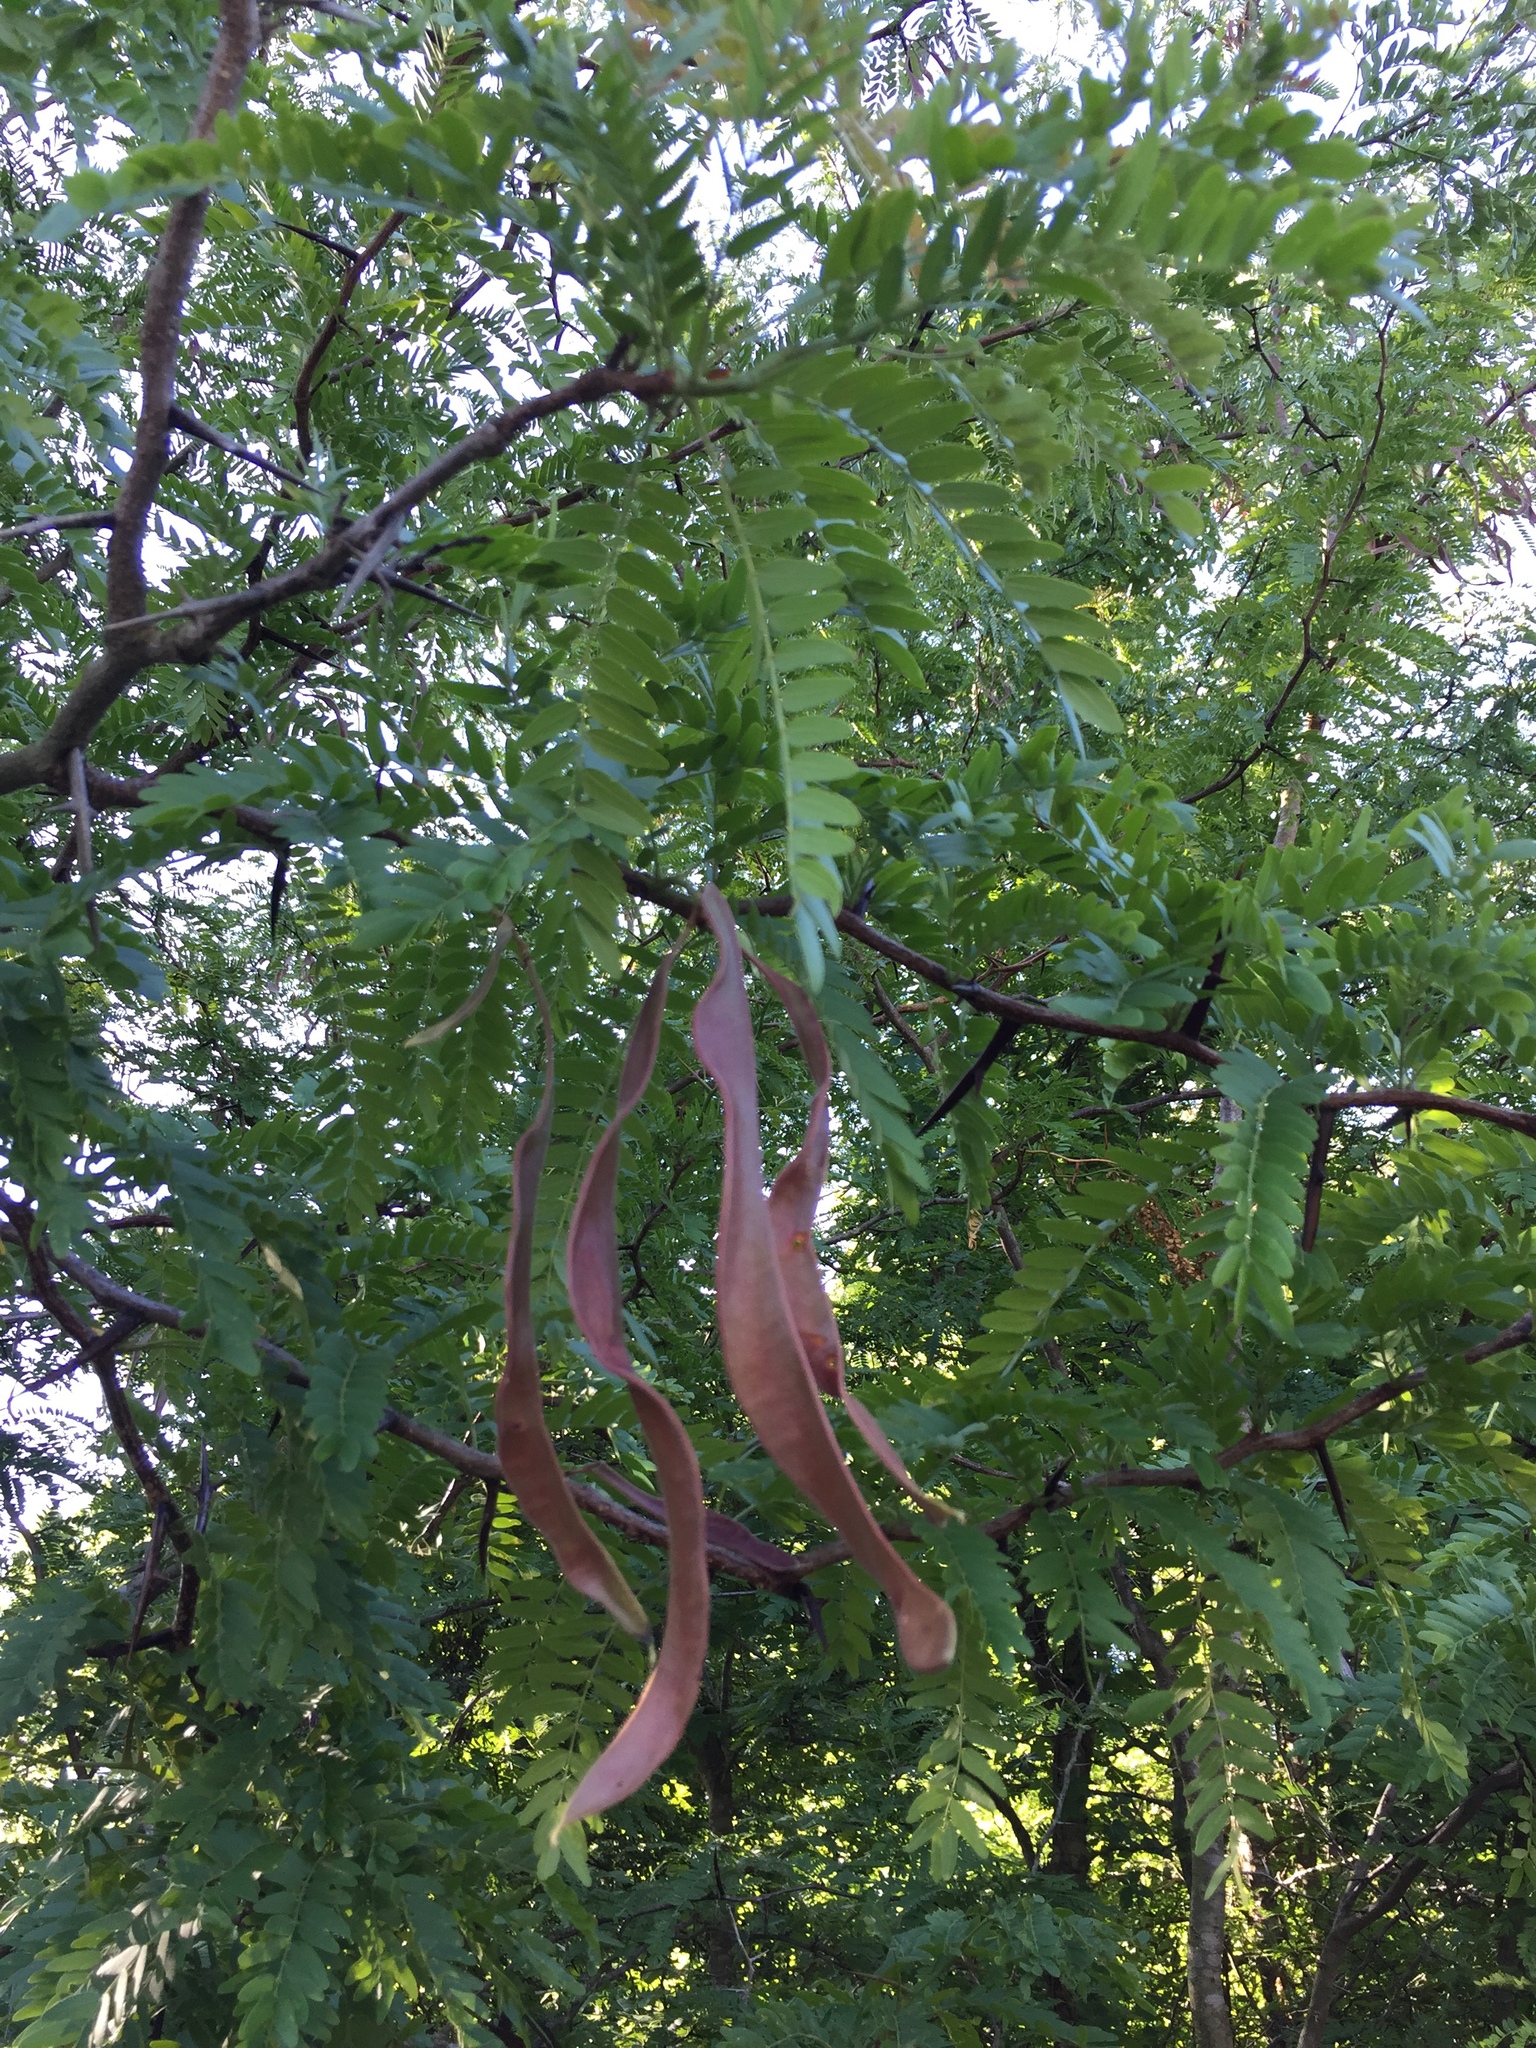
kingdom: Plantae
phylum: Tracheophyta
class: Magnoliopsida
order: Fabales
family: Fabaceae
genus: Gleditsia
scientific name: Gleditsia triacanthos
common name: Common honeylocust
